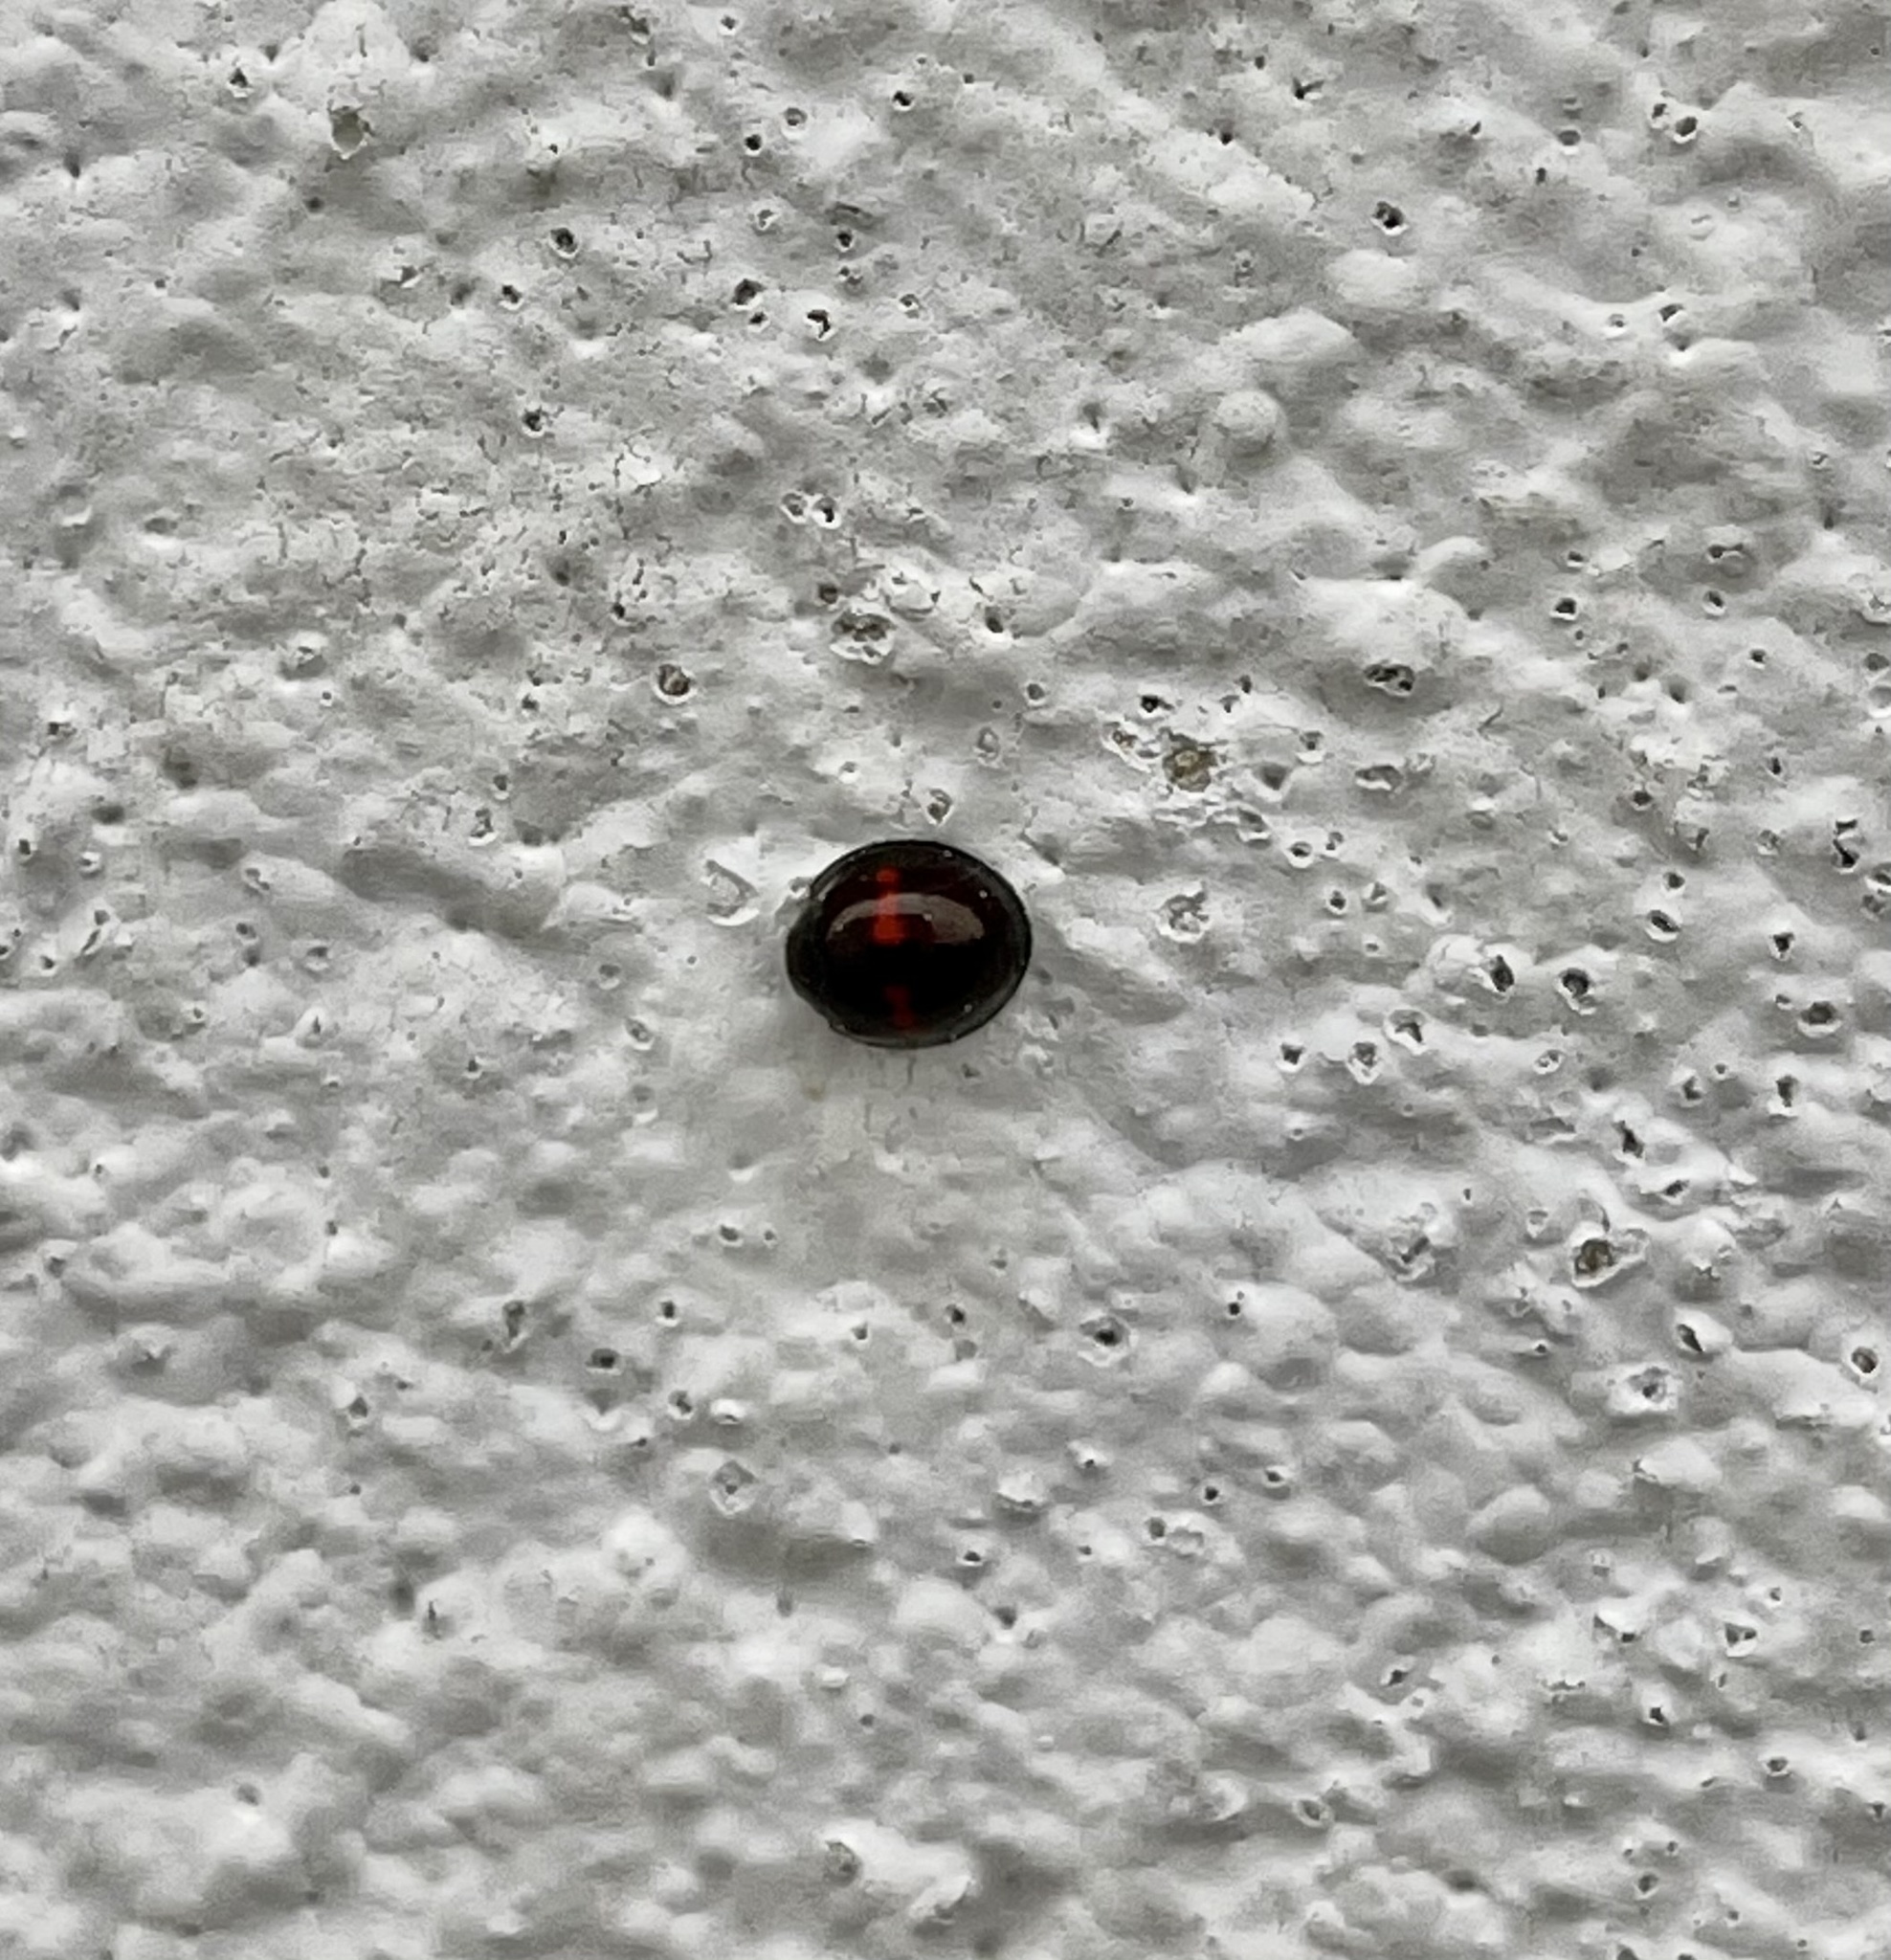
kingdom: Animalia
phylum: Arthropoda
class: Insecta
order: Coleoptera
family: Coccinellidae
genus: Chilocorus
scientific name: Chilocorus bipustulatus
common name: Heather ladybird
